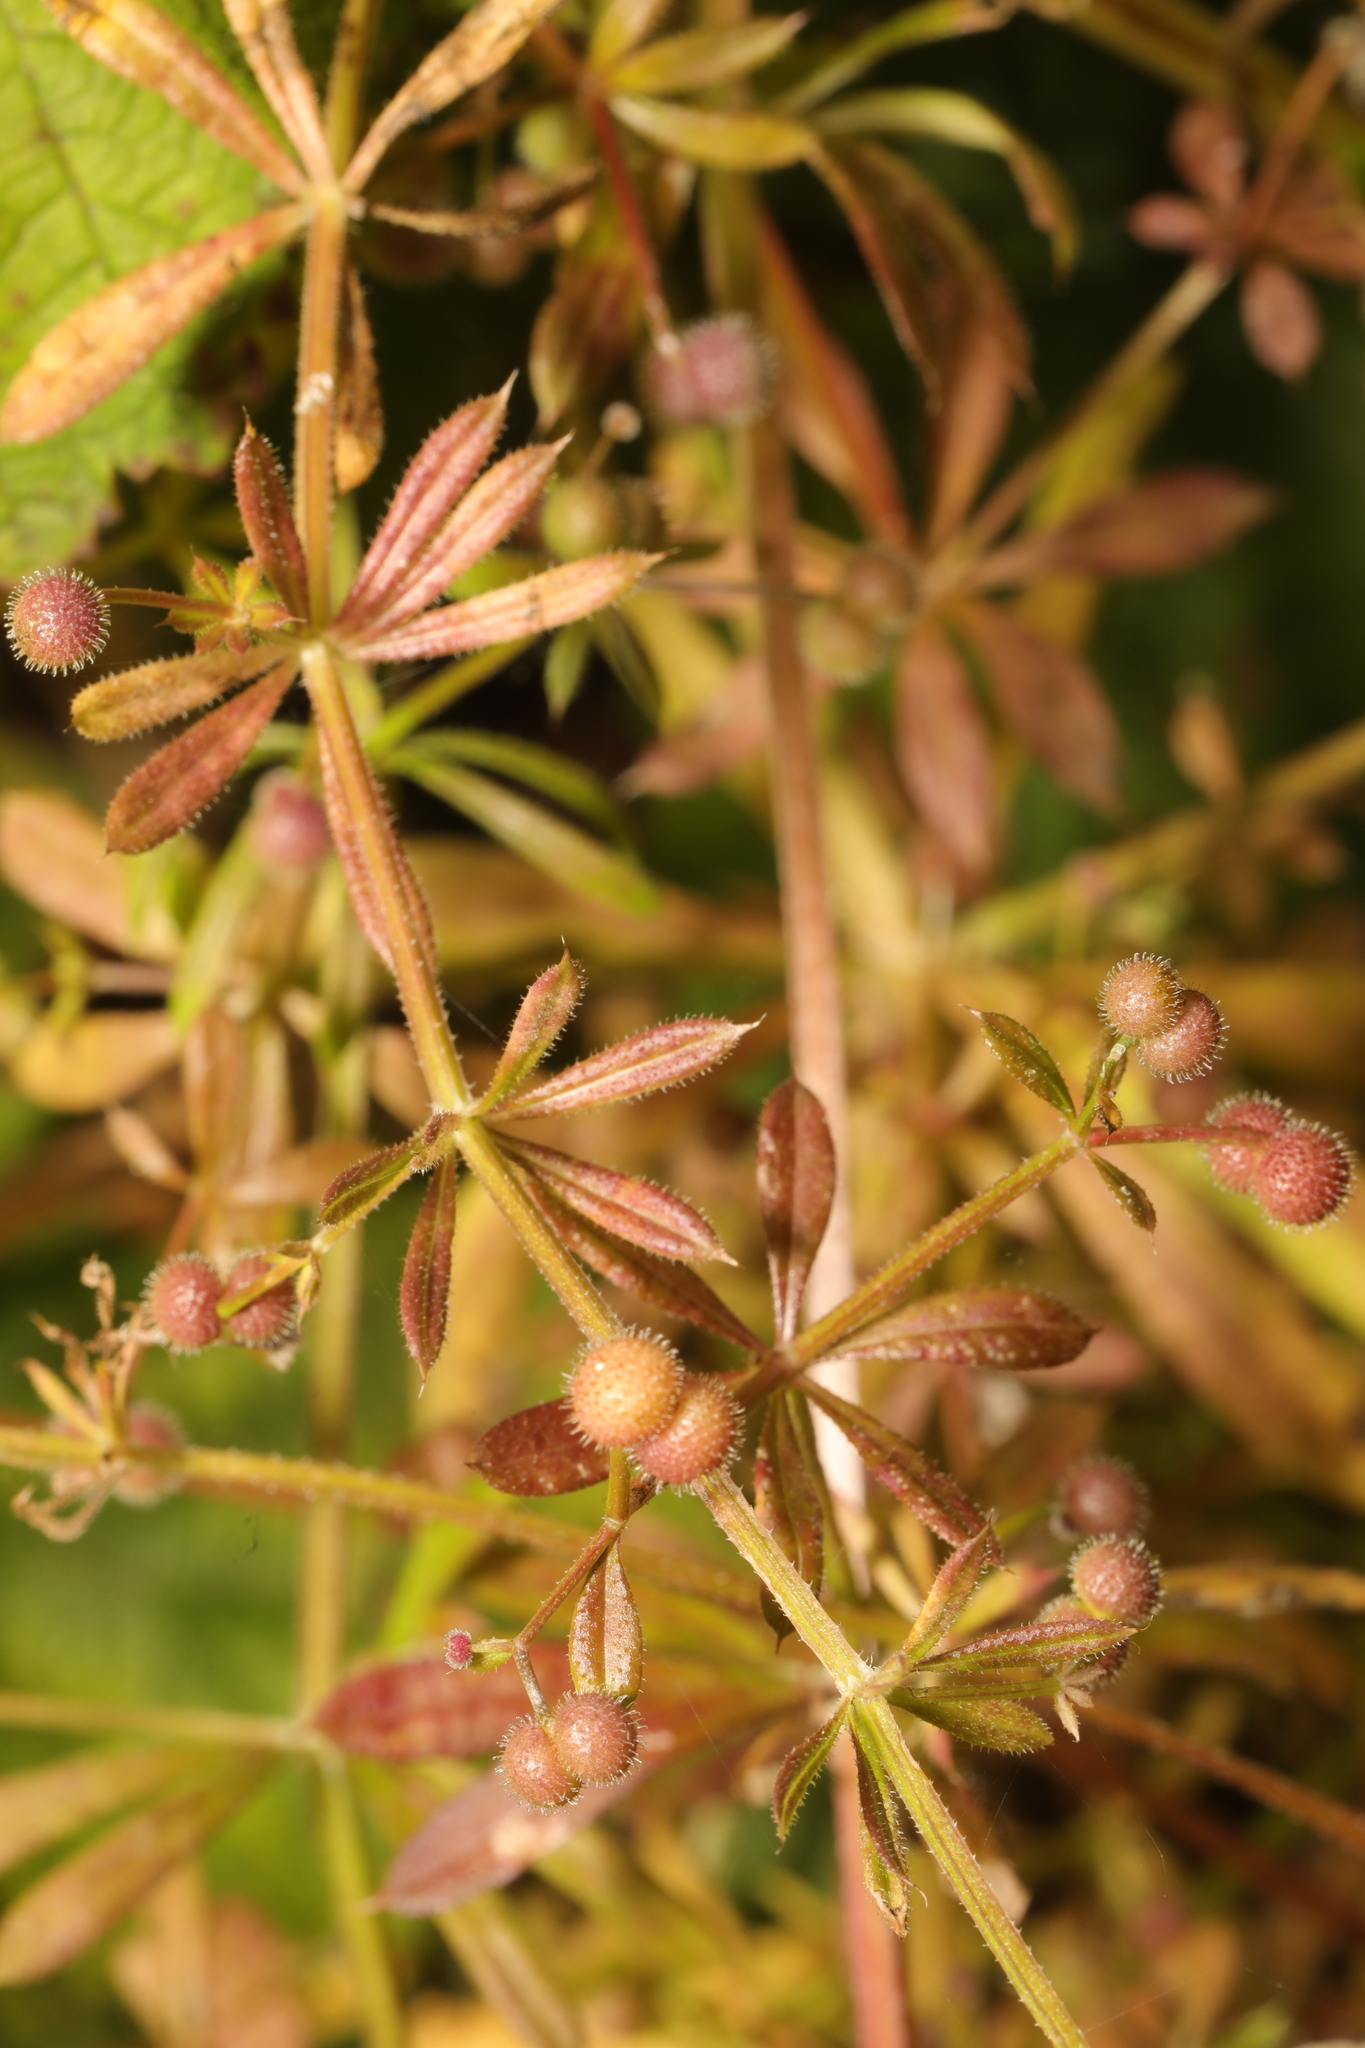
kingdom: Plantae
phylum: Tracheophyta
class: Magnoliopsida
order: Gentianales
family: Rubiaceae
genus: Galium
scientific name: Galium aparine
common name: Cleavers
